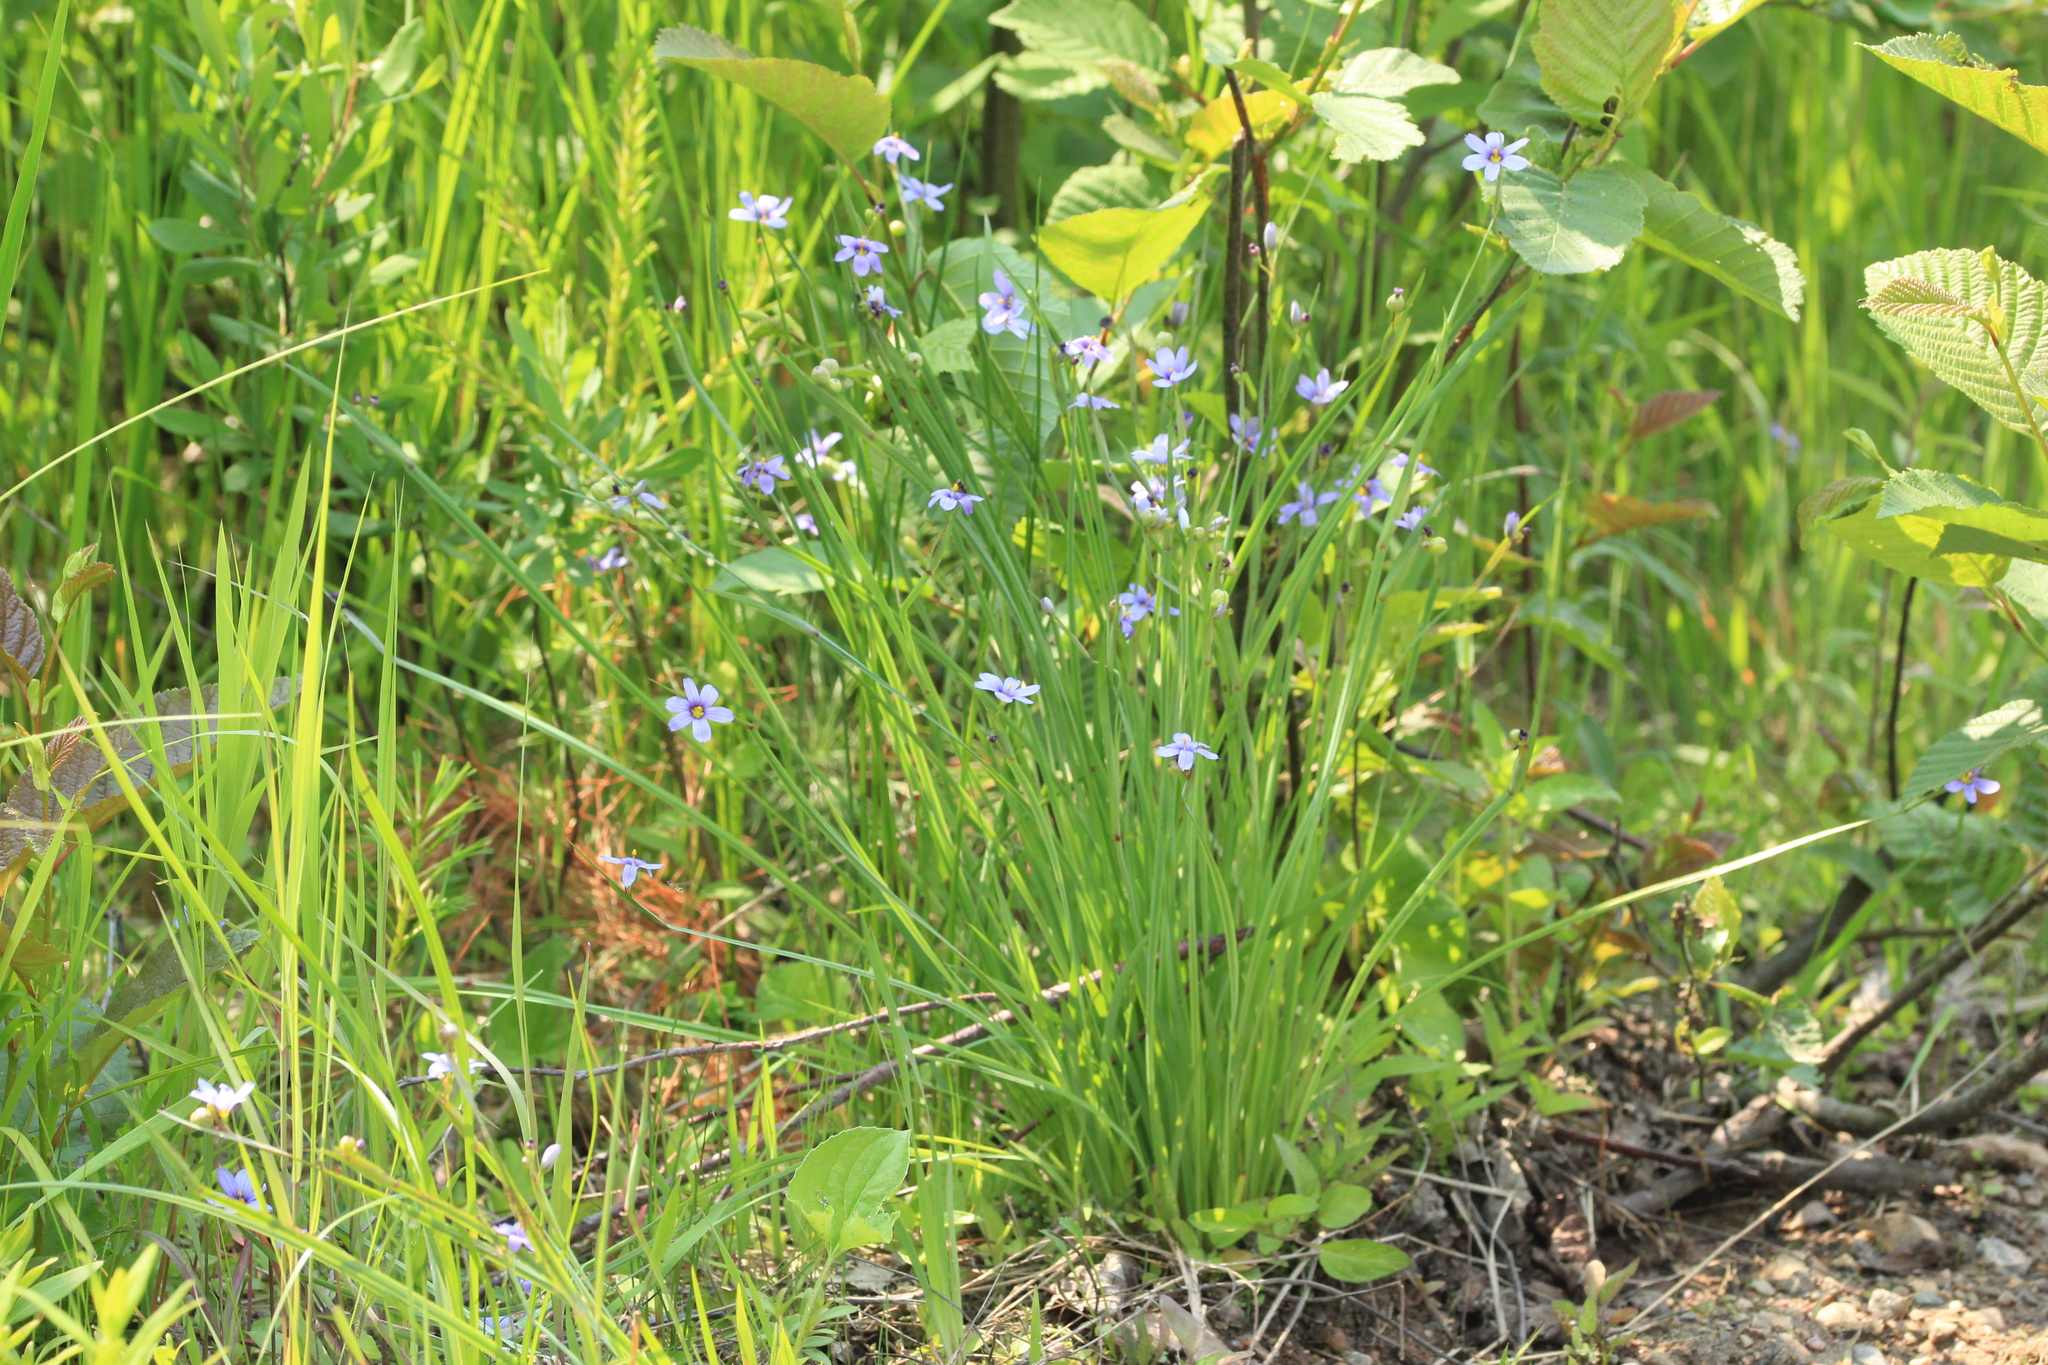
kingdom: Plantae
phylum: Tracheophyta
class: Liliopsida
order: Asparagales
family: Iridaceae
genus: Sisyrinchium
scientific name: Sisyrinchium montanum
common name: American blue-eyed-grass
